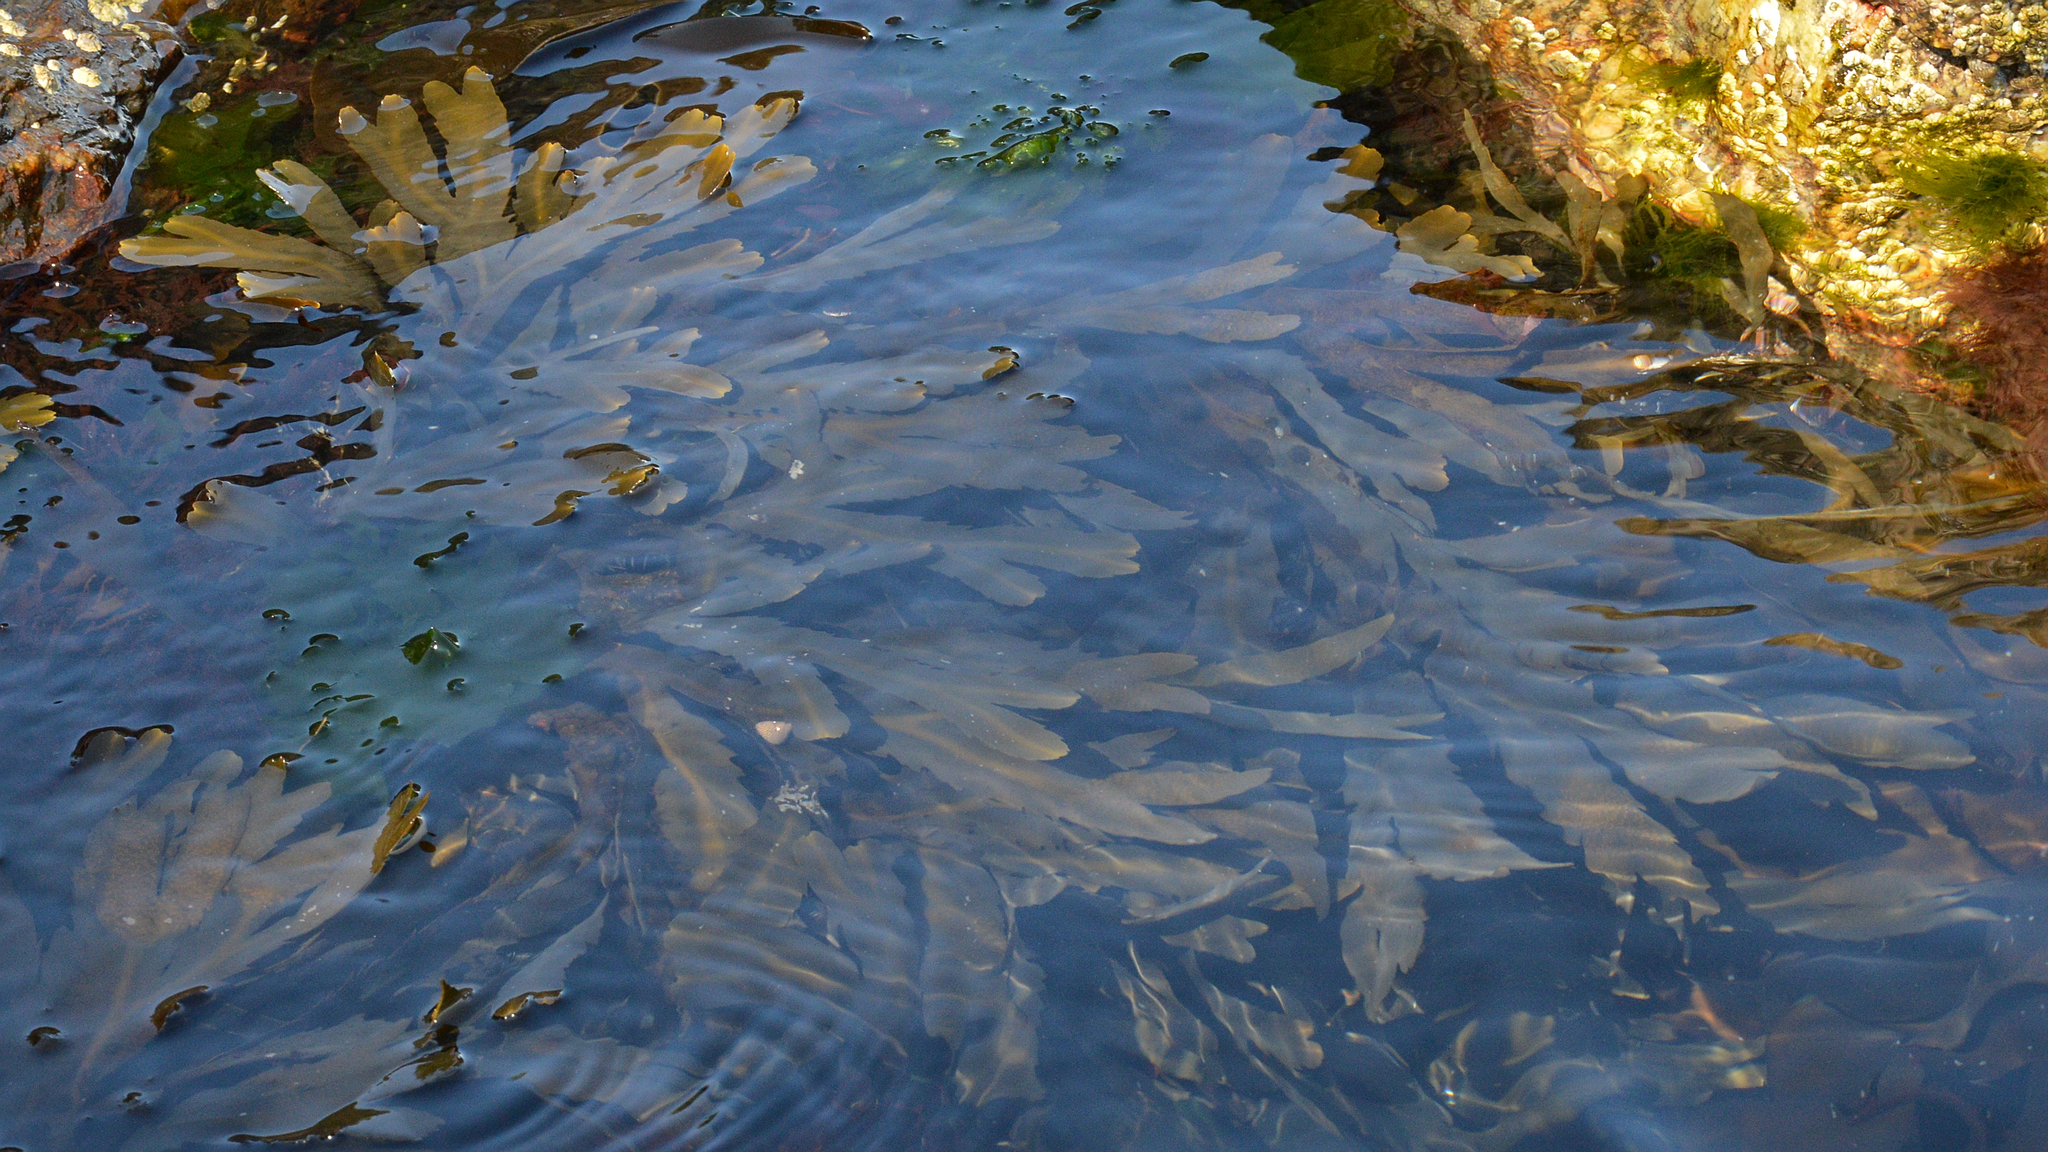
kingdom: Chromista
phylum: Ochrophyta
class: Phaeophyceae
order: Fucales
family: Fucaceae
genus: Fucus
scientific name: Fucus serratus
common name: Toothed wrack
